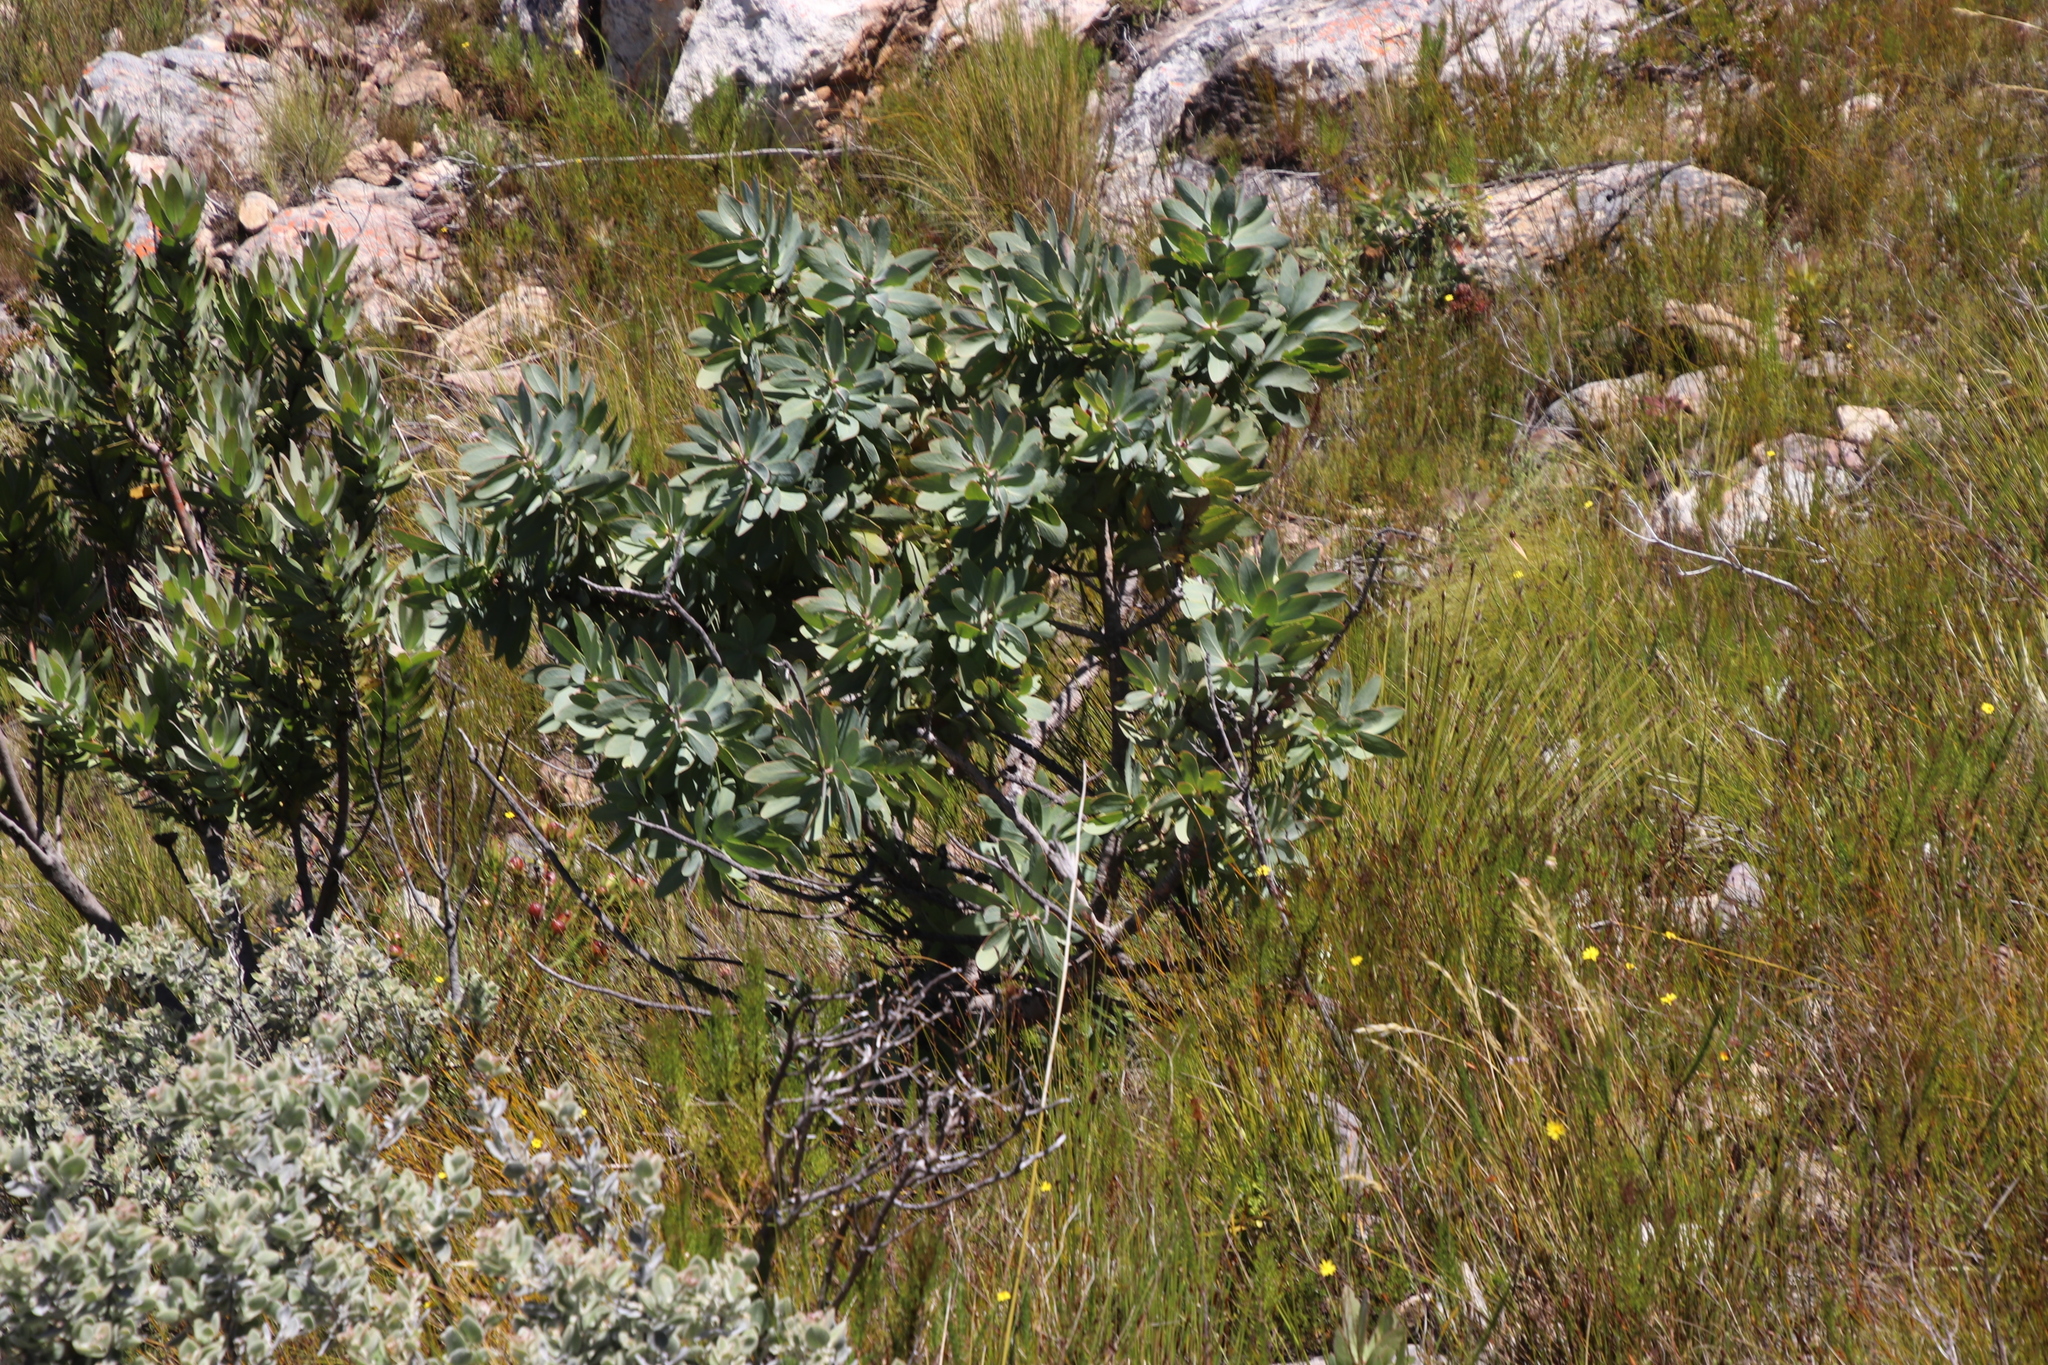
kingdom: Plantae
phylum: Tracheophyta
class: Magnoliopsida
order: Proteales
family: Proteaceae
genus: Protea
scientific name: Protea nitida
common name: Tree protea
